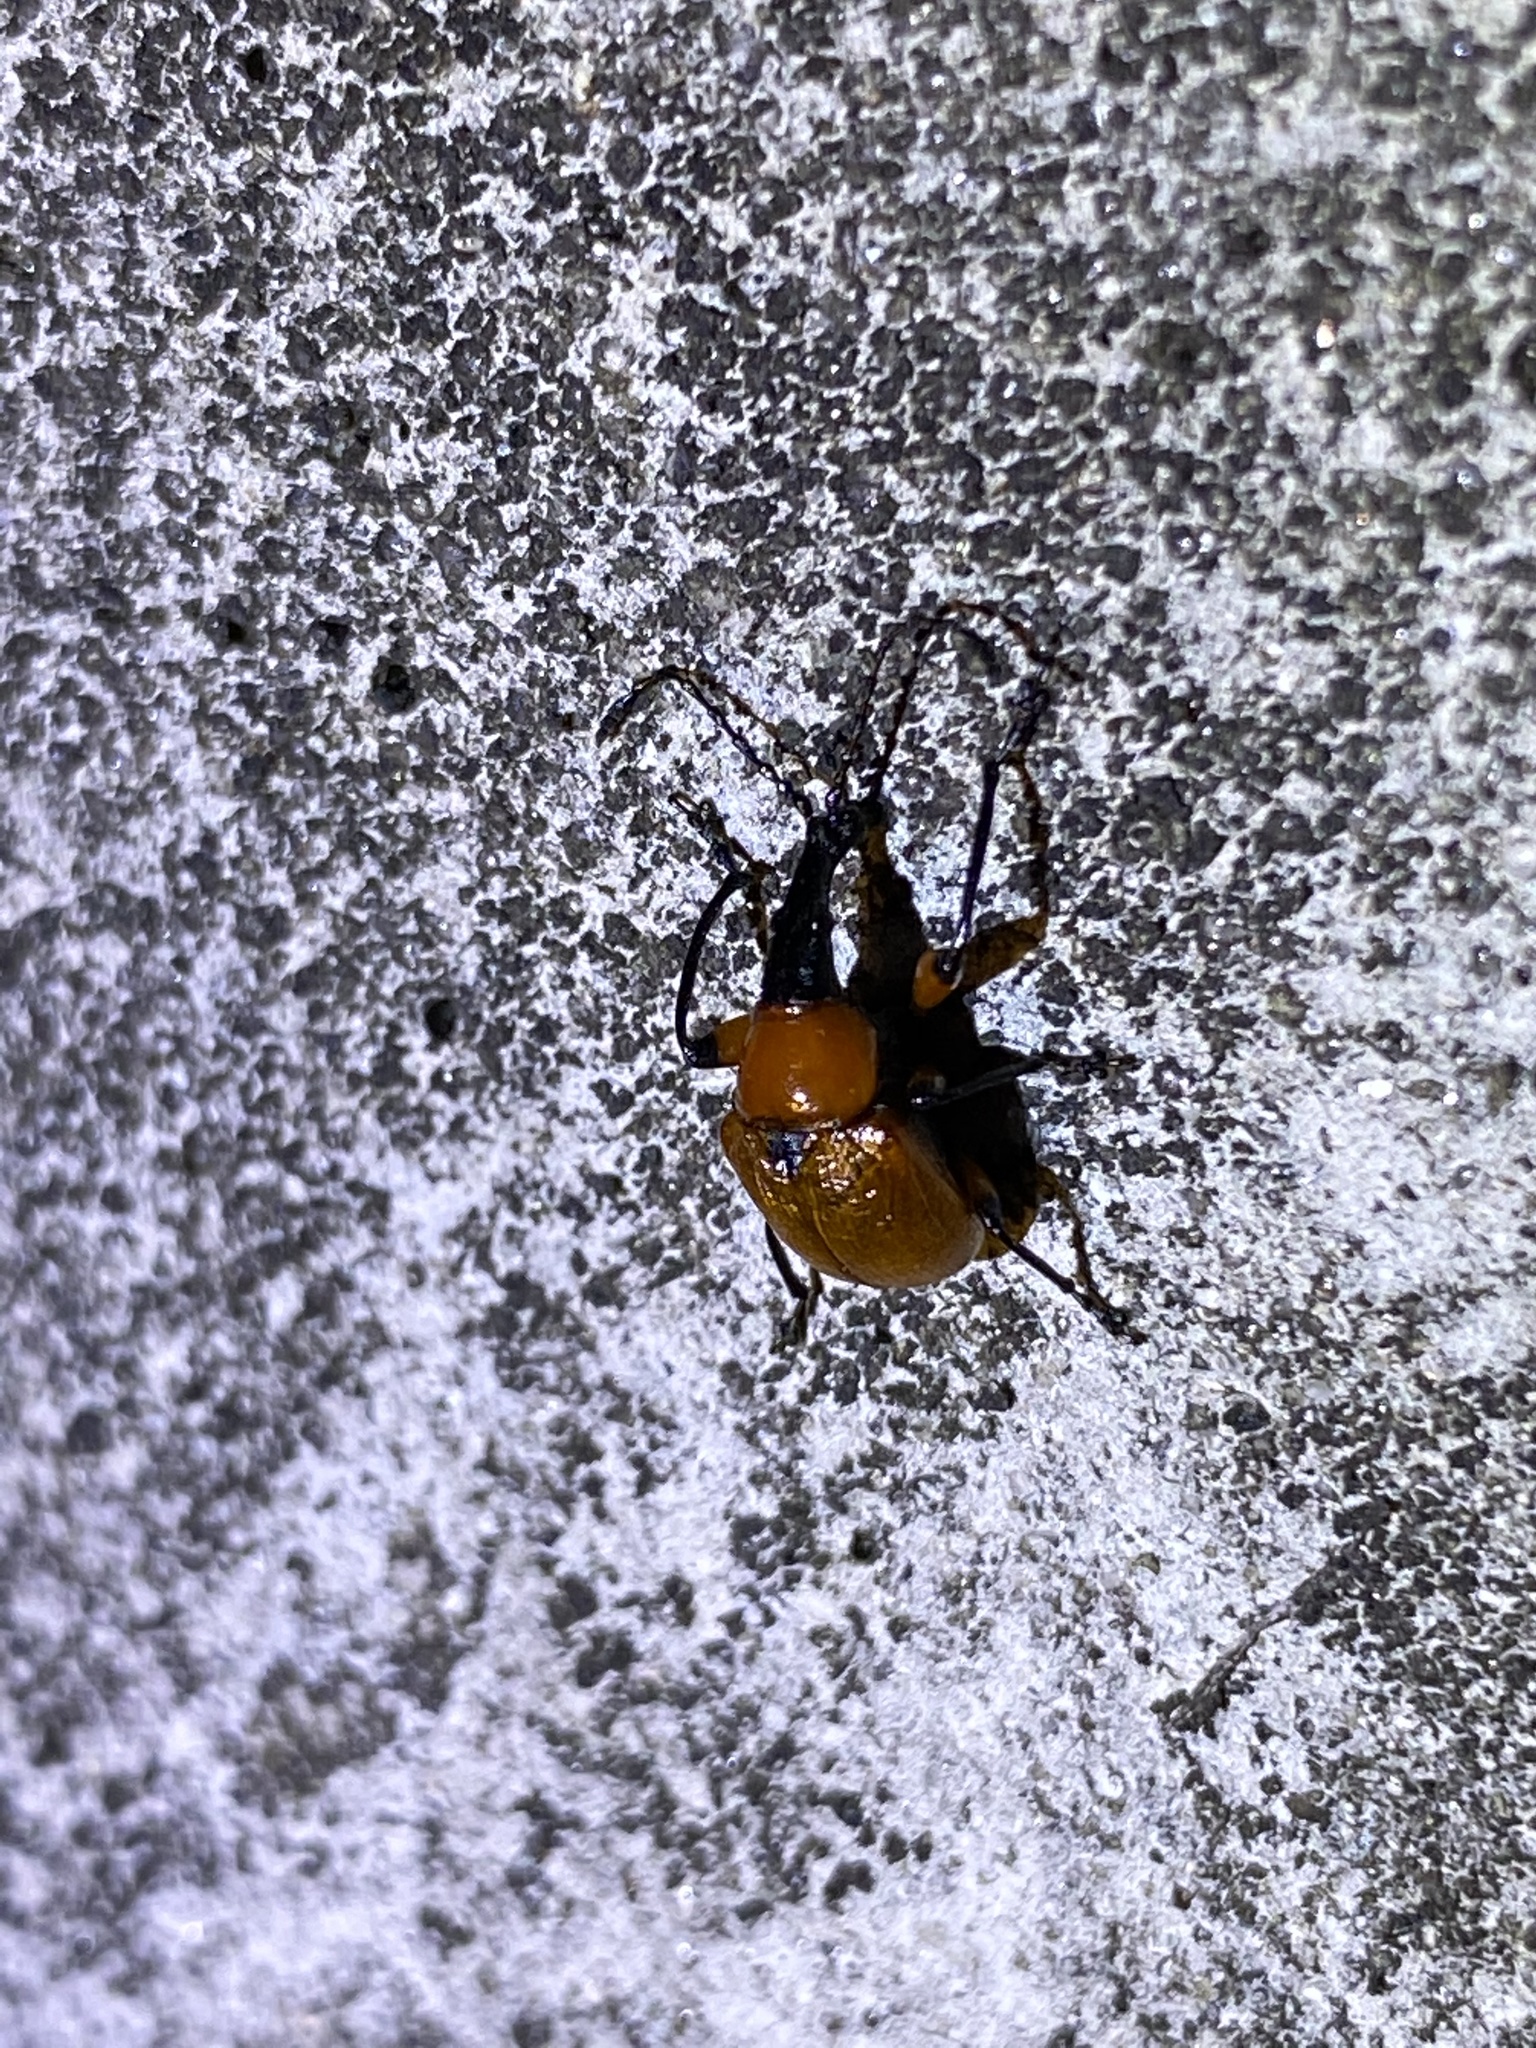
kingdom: Animalia
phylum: Arthropoda
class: Insecta
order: Coleoptera
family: Attelabidae
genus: Phialodes
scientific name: Phialodes rufipennis
